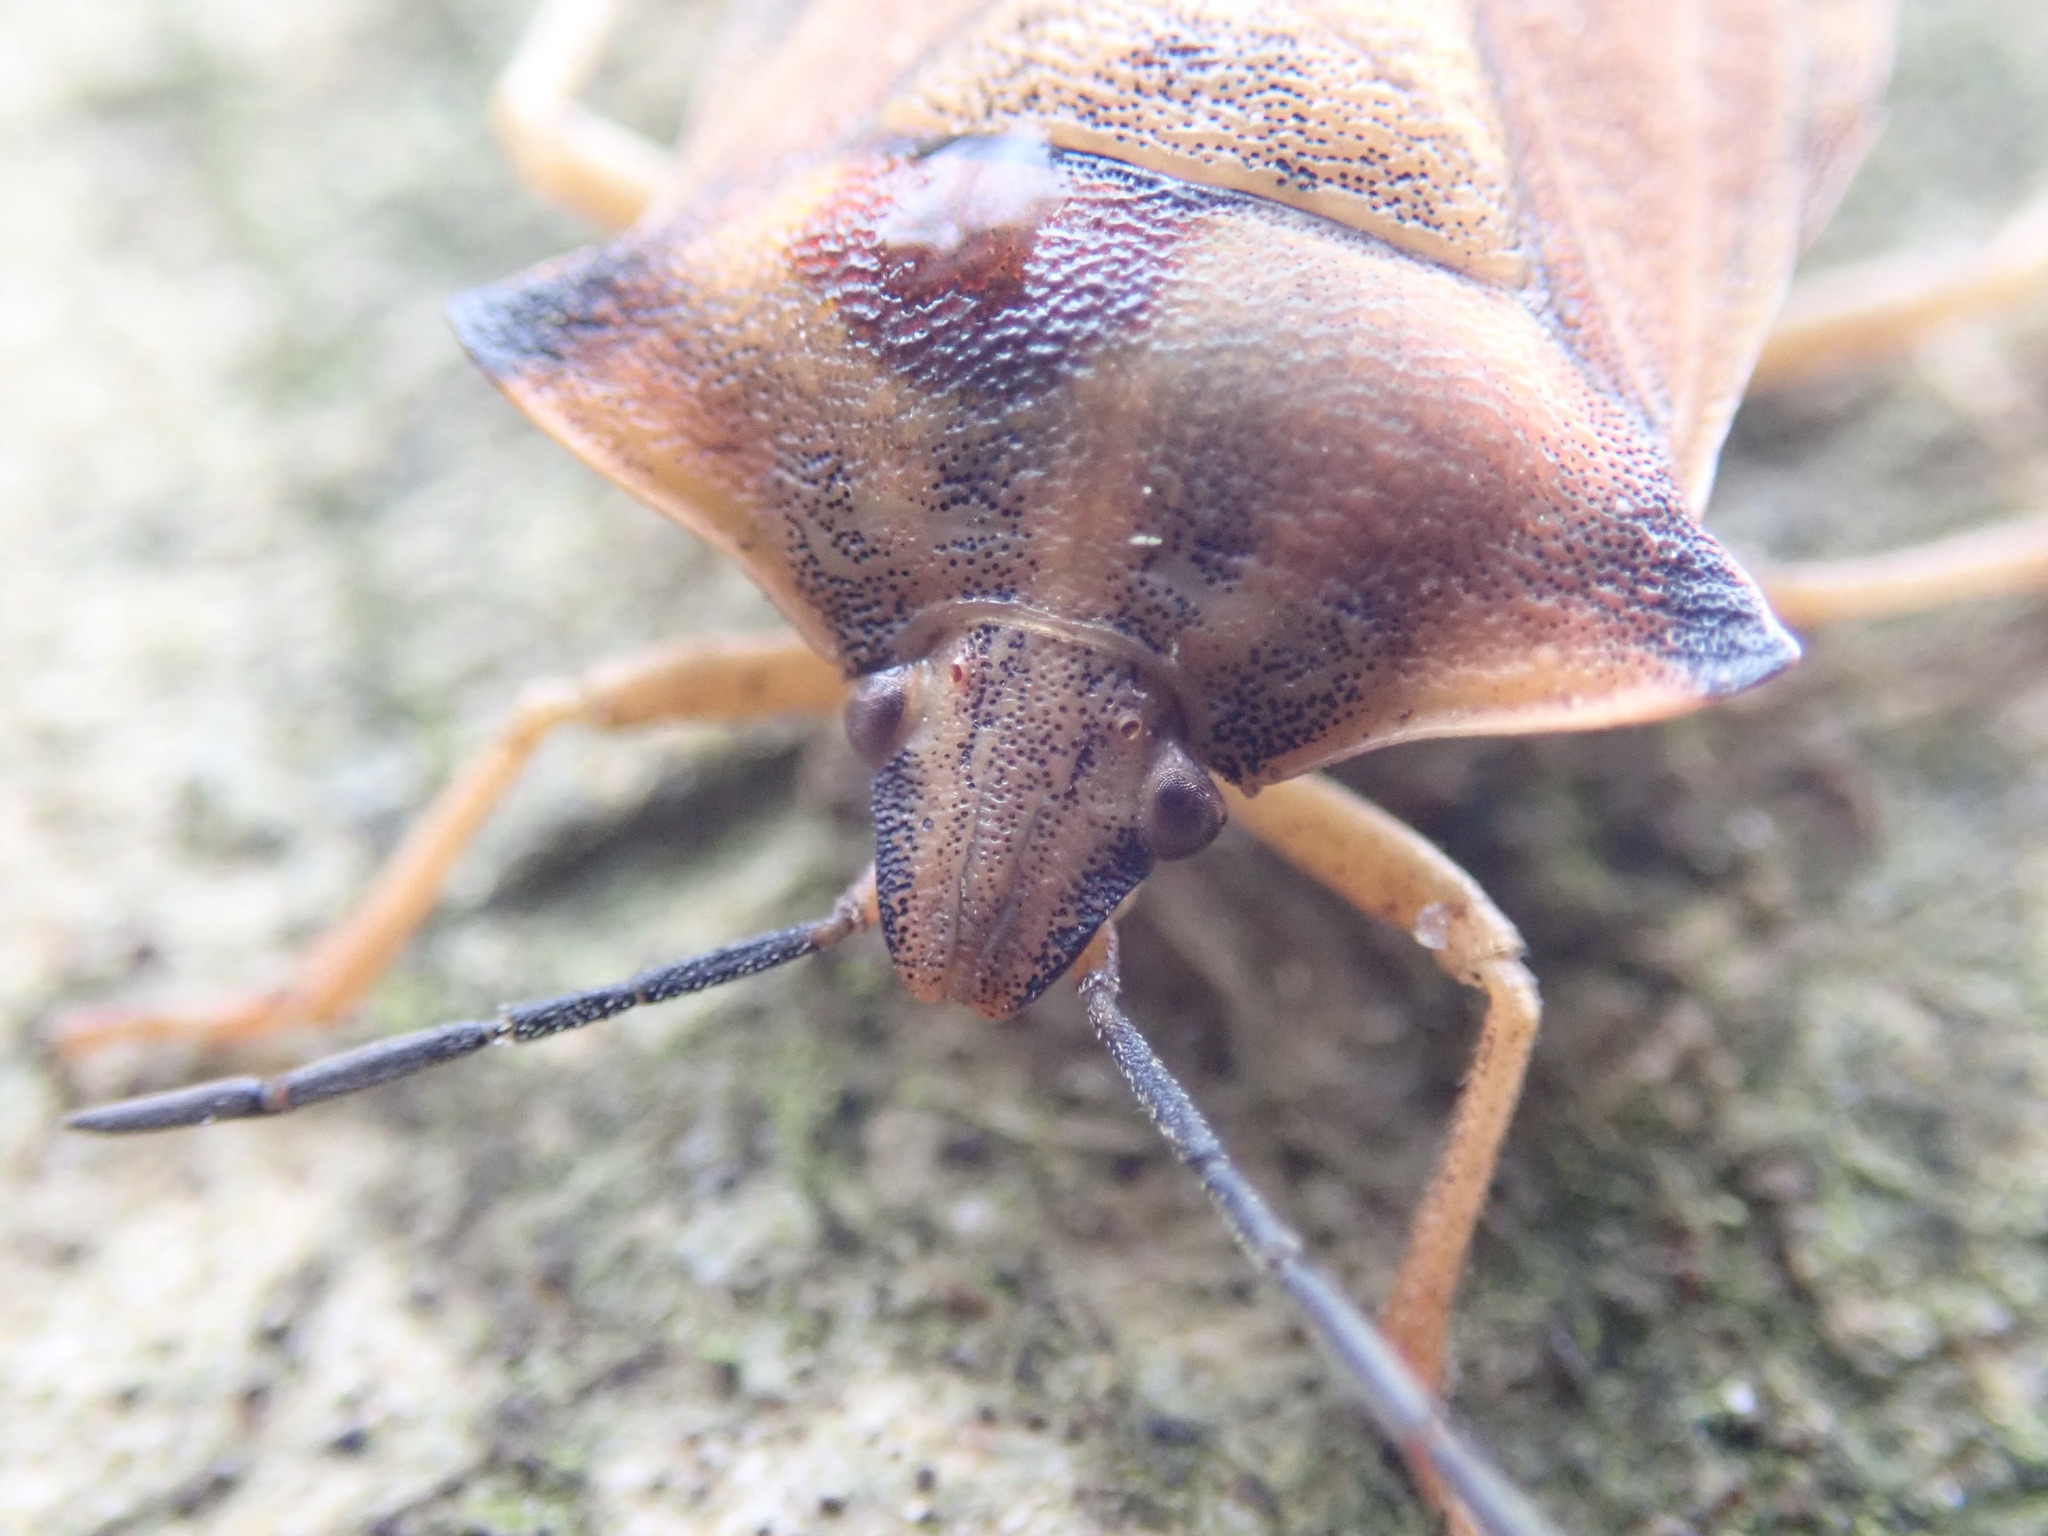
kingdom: Animalia
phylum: Arthropoda
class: Insecta
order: Hemiptera
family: Pentatomidae
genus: Carpocoris
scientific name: Carpocoris fuscispinus
